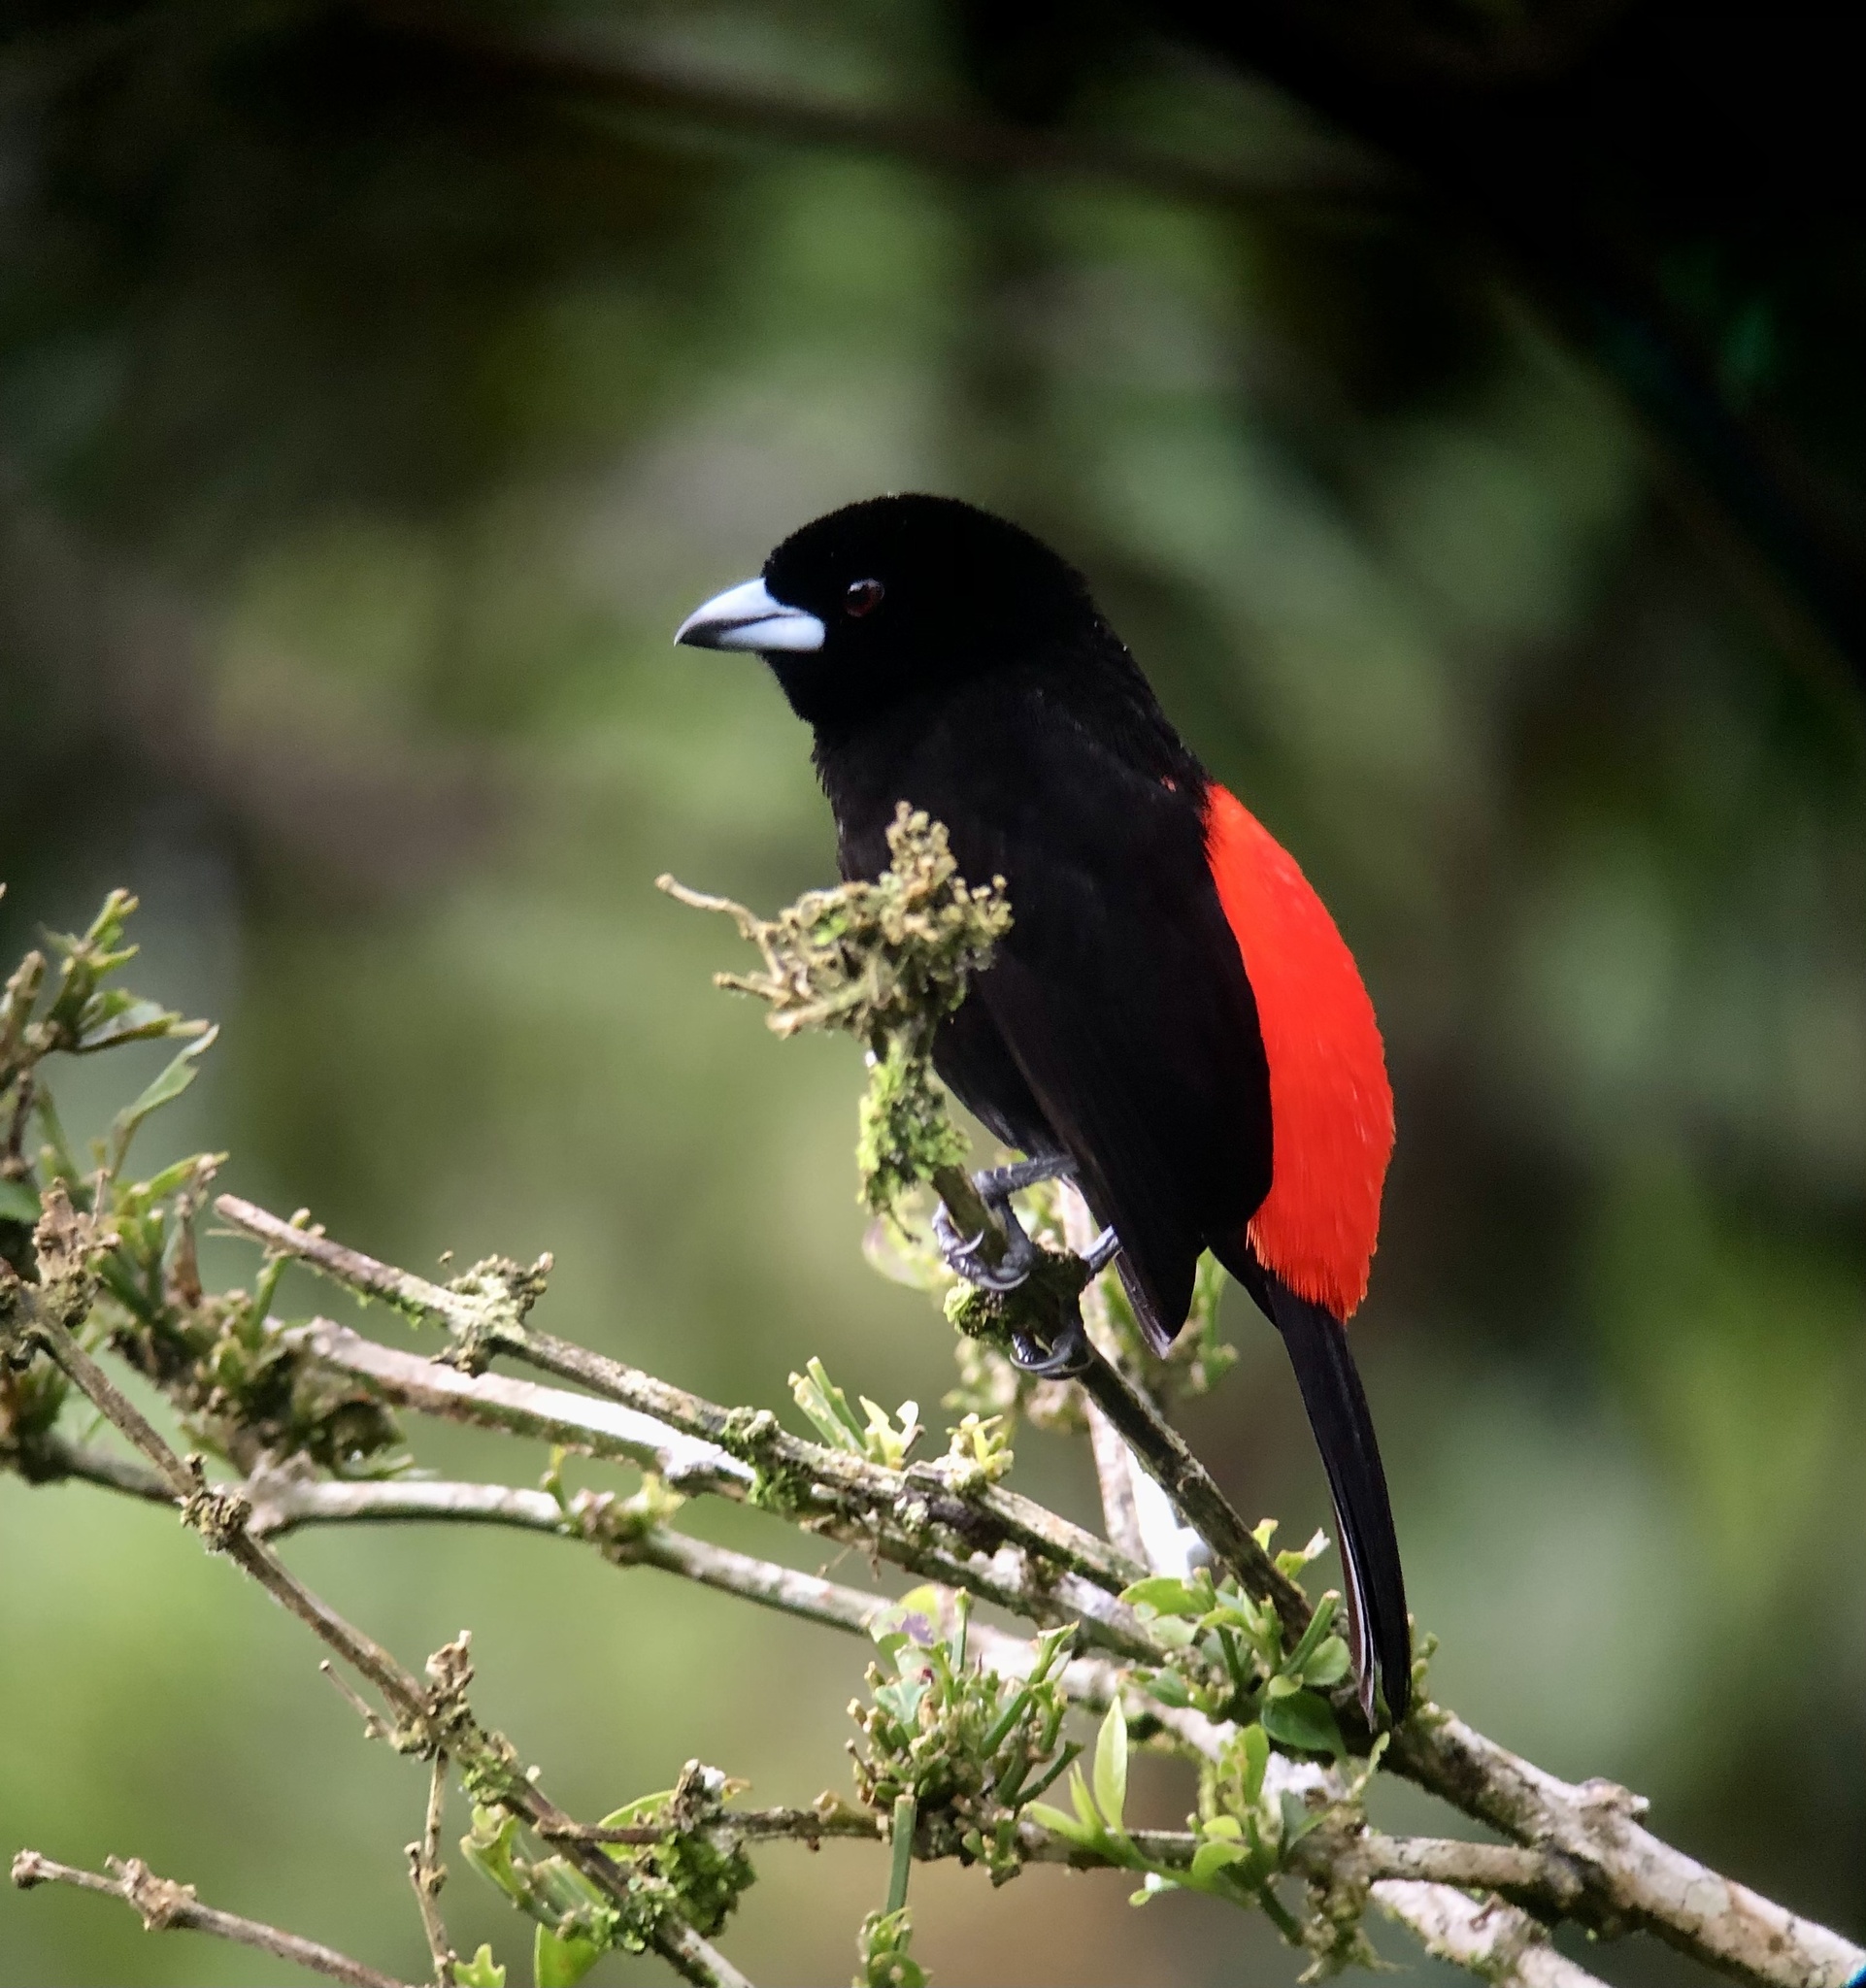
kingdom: Animalia
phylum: Chordata
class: Aves
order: Passeriformes
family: Thraupidae
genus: Ramphocelus
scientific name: Ramphocelus passerinii
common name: Passerini's tanager
